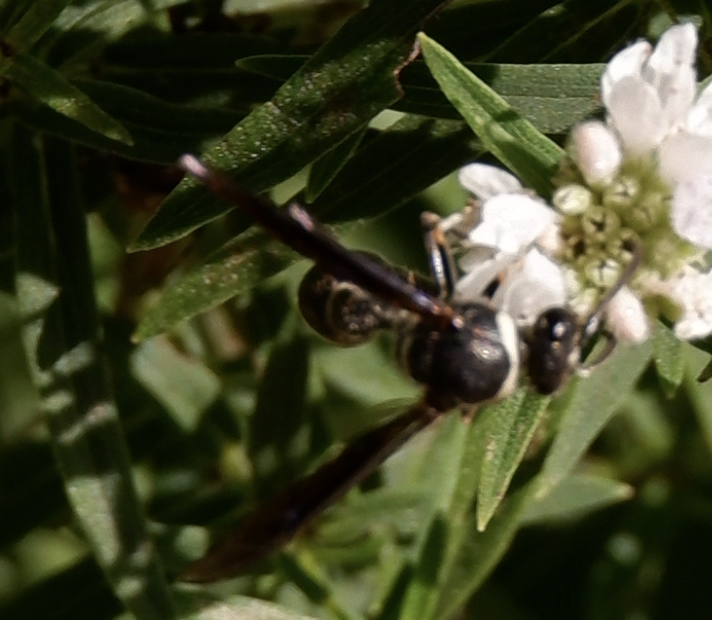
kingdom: Animalia
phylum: Arthropoda
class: Insecta
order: Hymenoptera
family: Vespidae
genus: Eumenes
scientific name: Eumenes fraternus
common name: Fraternal potter wasp
